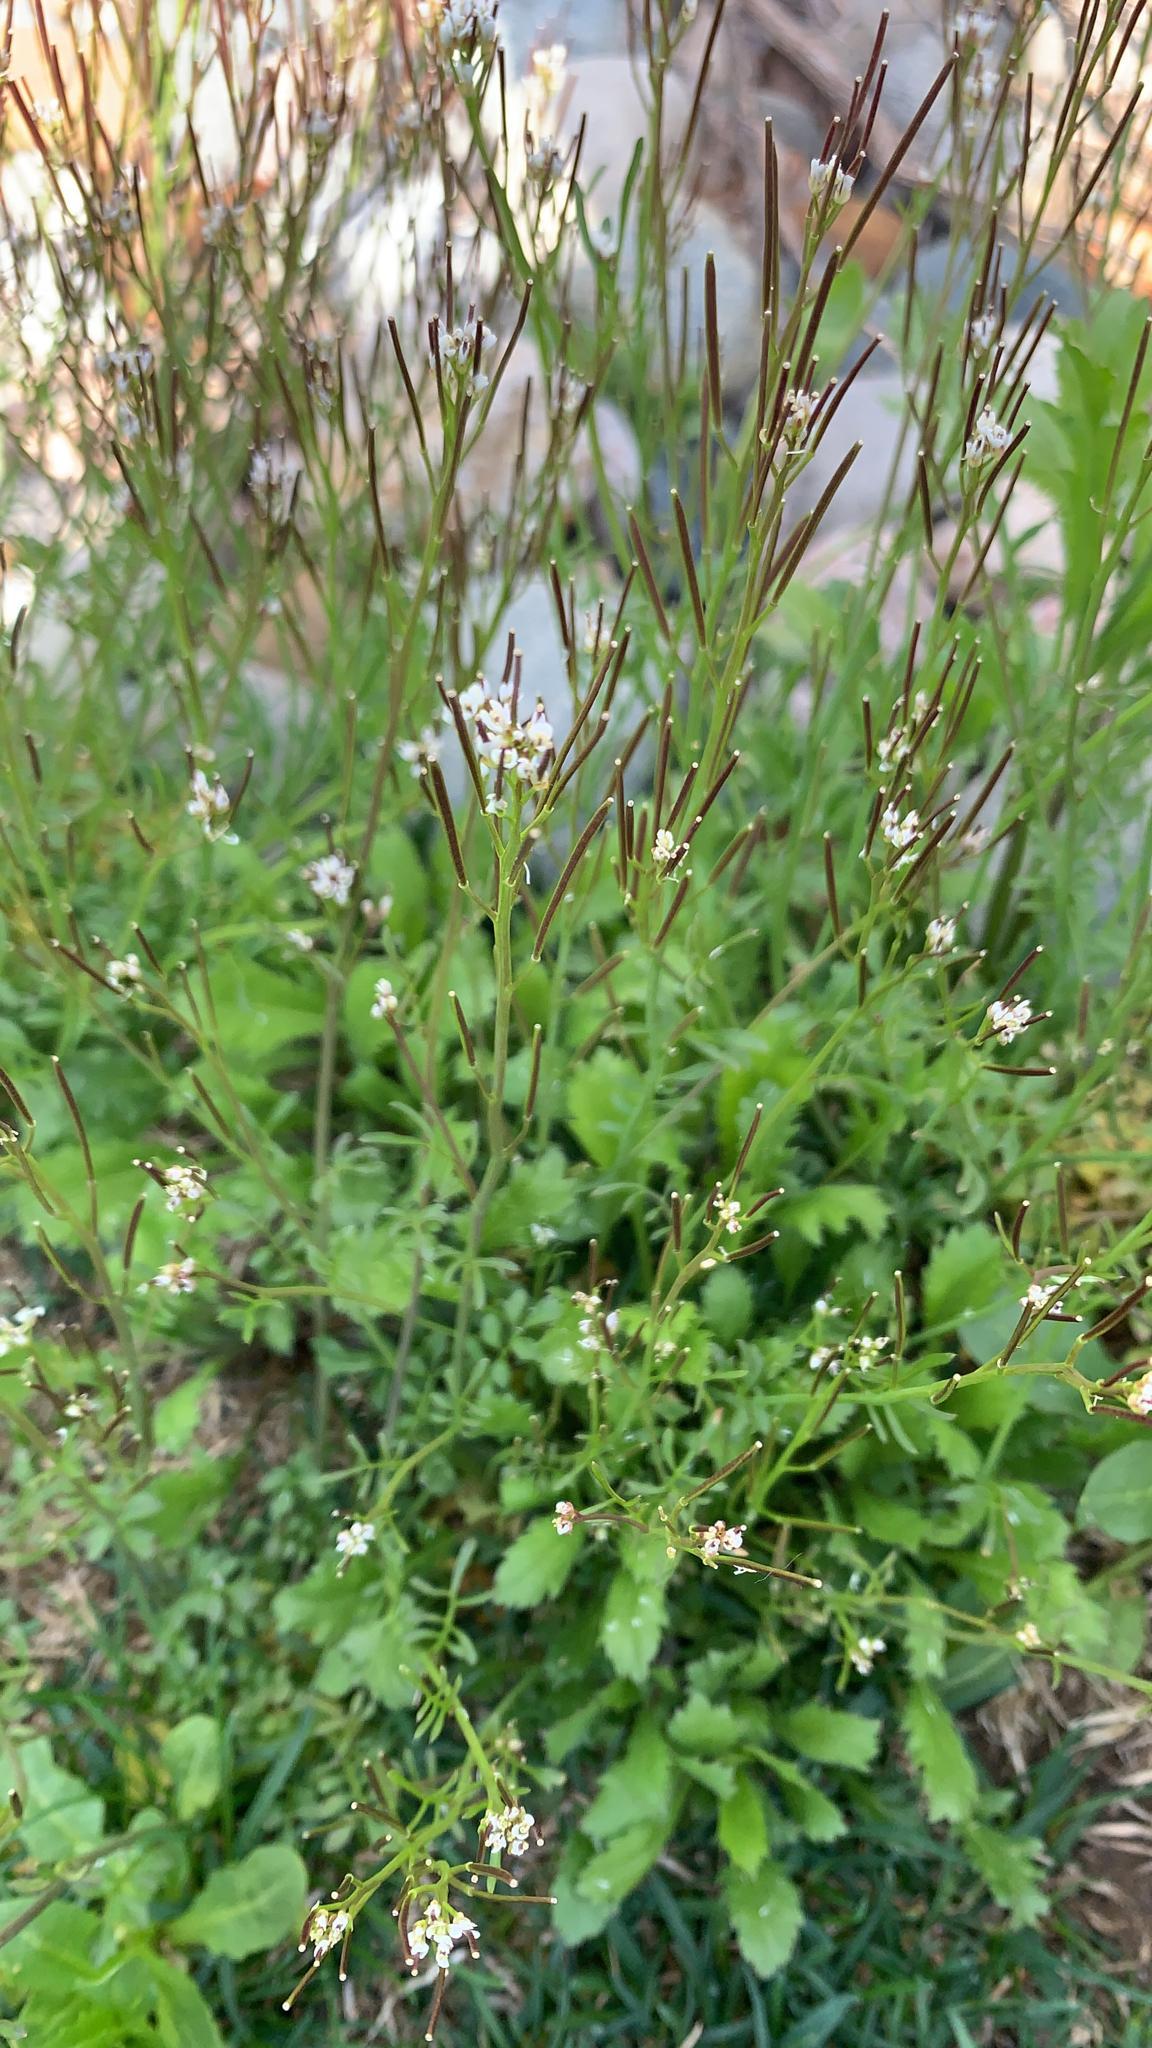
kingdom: Plantae
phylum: Tracheophyta
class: Magnoliopsida
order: Brassicales
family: Brassicaceae
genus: Cardamine
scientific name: Cardamine hirsuta
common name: Hairy bittercress
